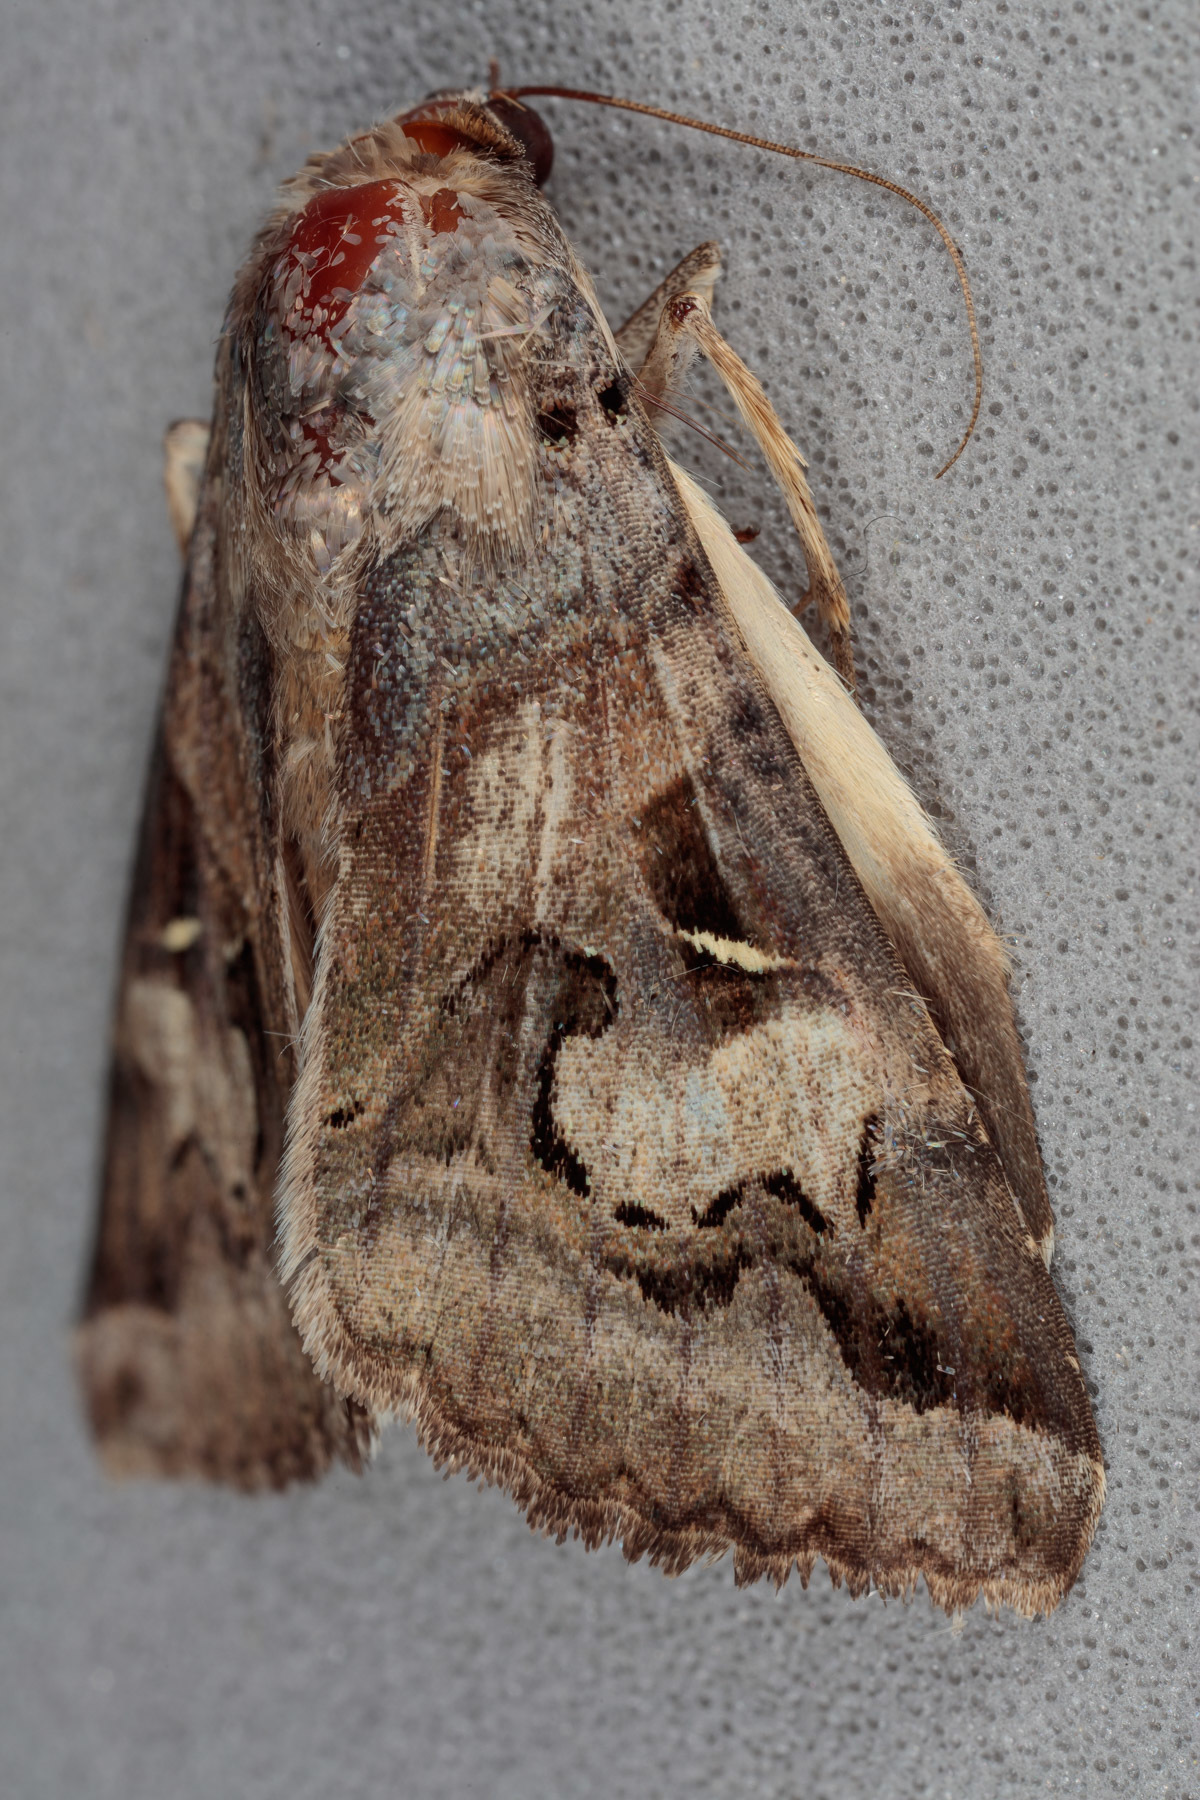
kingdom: Animalia
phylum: Arthropoda
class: Insecta
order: Lepidoptera
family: Erebidae
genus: Melipotis
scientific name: Melipotis indomita
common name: Moth
